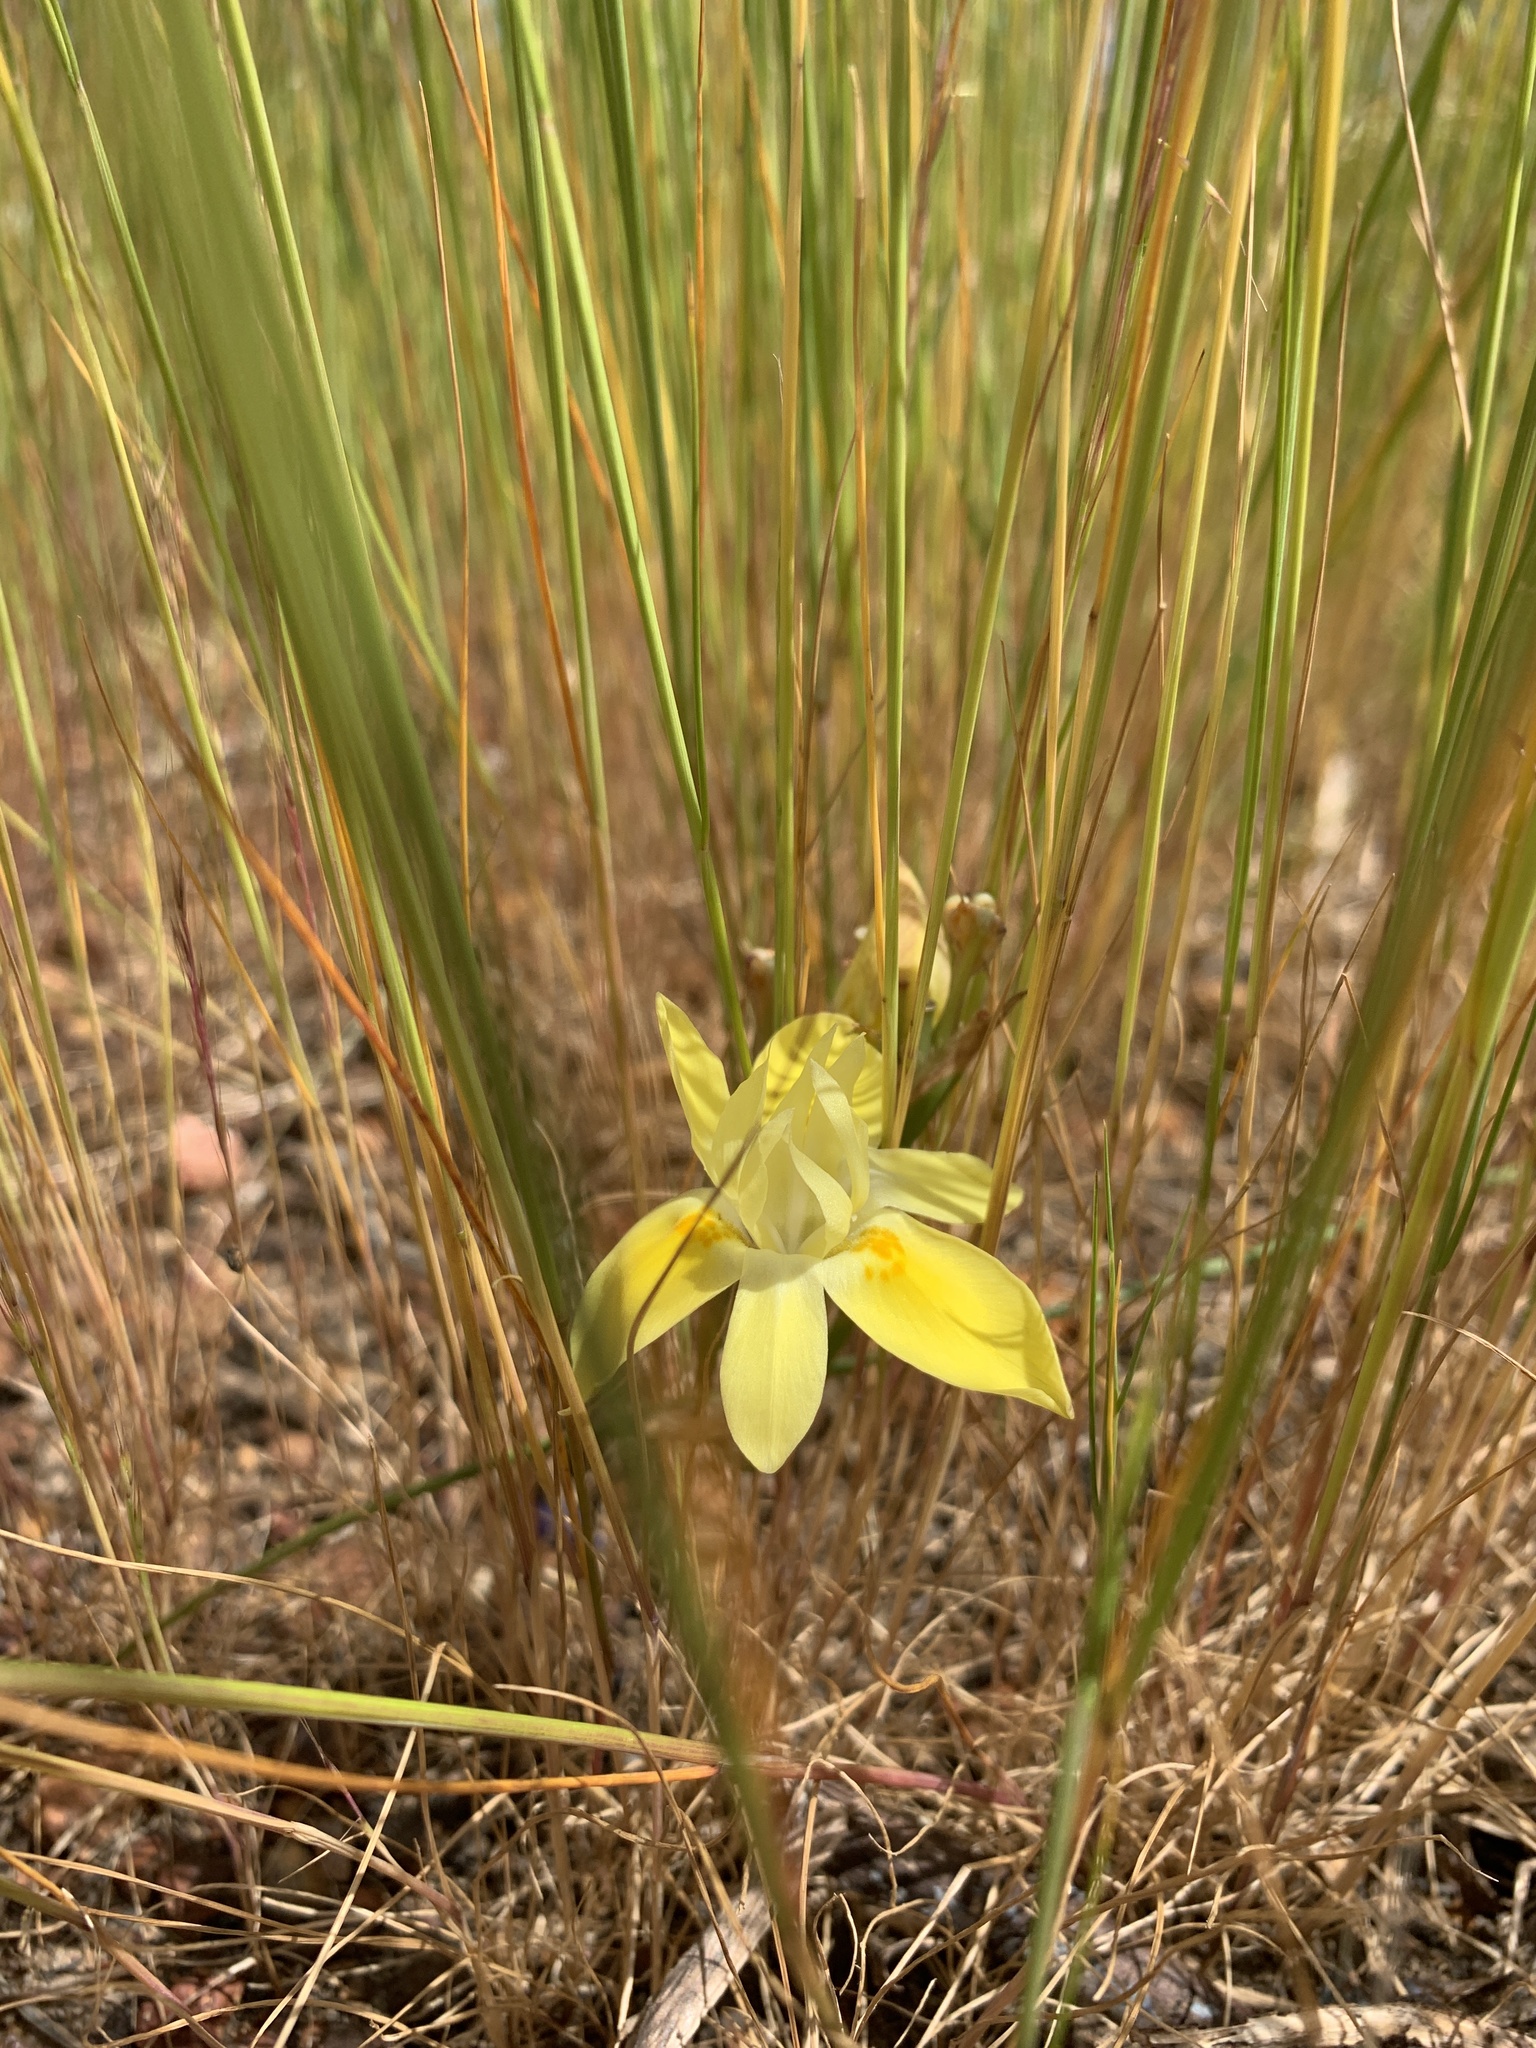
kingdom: Plantae
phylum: Tracheophyta
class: Liliopsida
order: Asparagales
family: Iridaceae
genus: Moraea
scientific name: Moraea fugax
